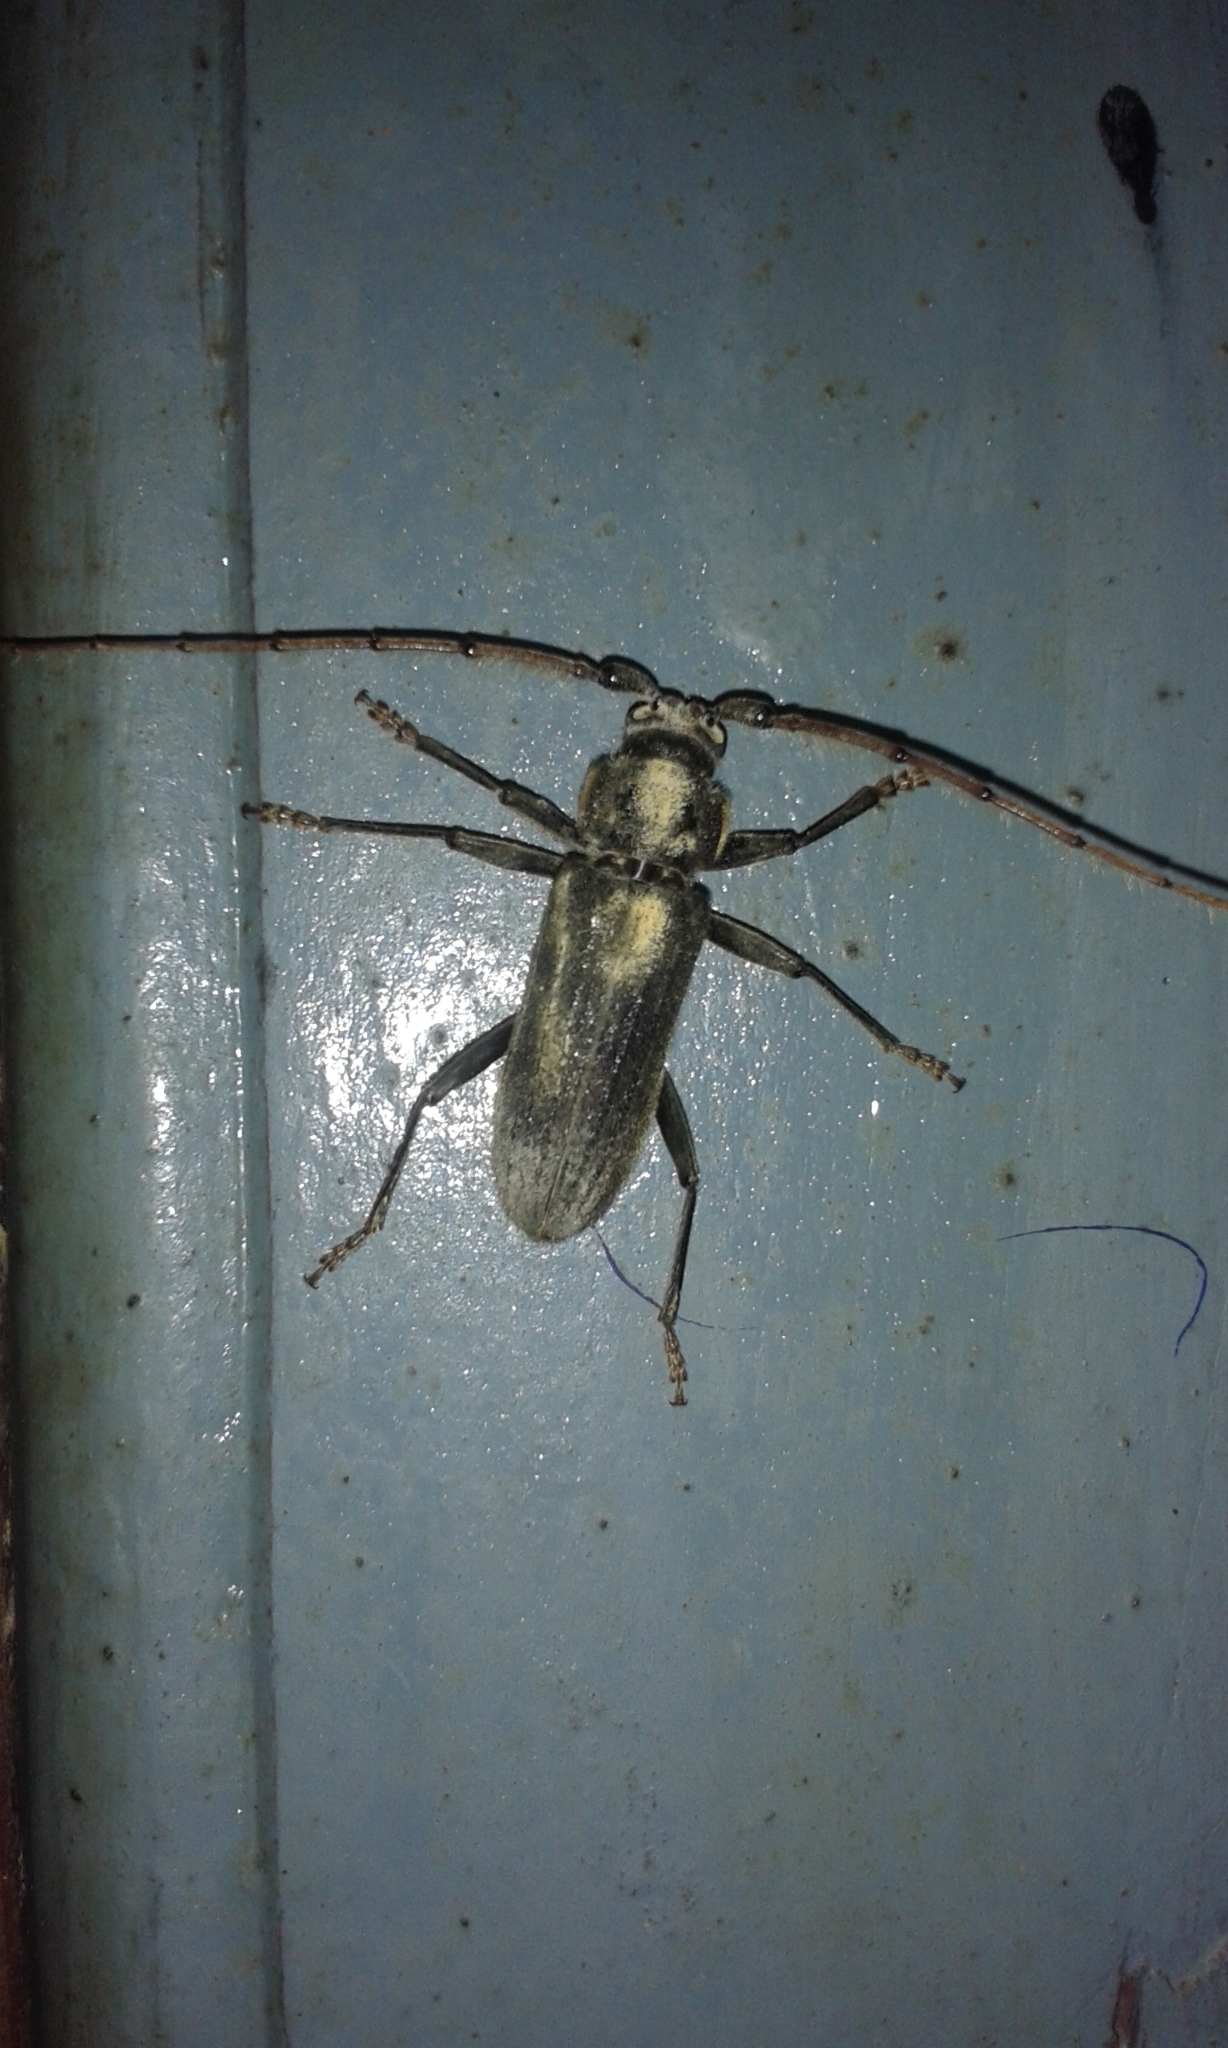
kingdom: Animalia
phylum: Arthropoda
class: Insecta
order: Coleoptera
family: Cerambycidae
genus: Stromatium
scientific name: Stromatium barbatum
